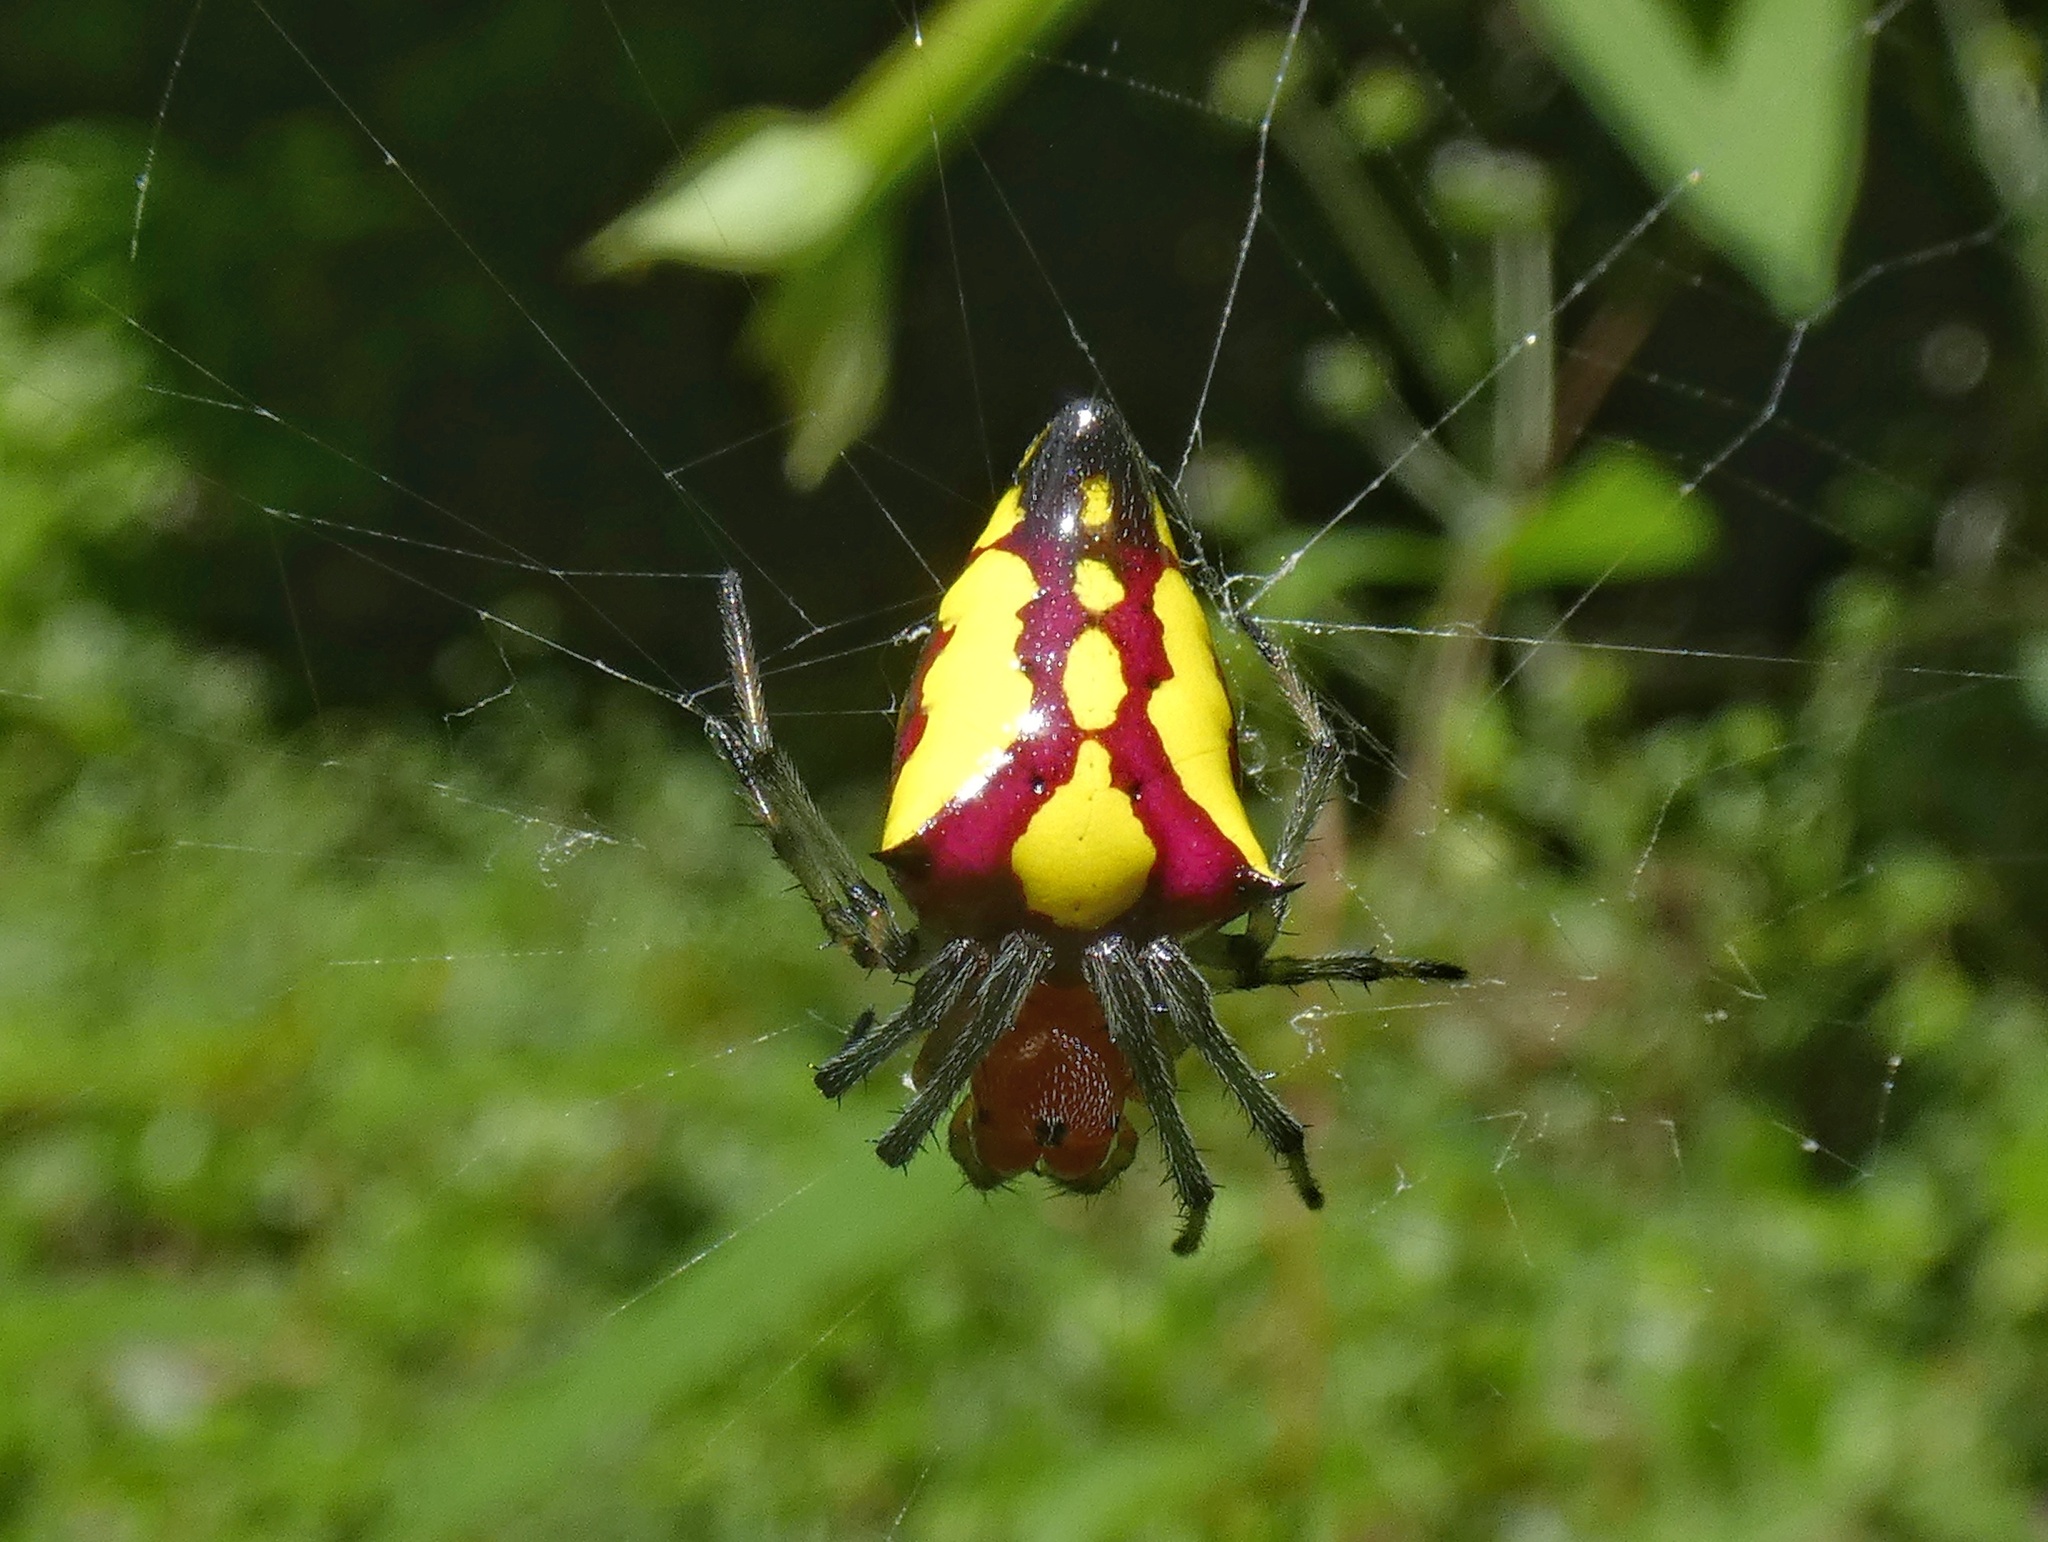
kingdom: Animalia
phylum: Arthropoda
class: Arachnida
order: Araneae
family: Araneidae
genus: Alpaida
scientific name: Alpaida bicornuta
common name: Orb weavers
